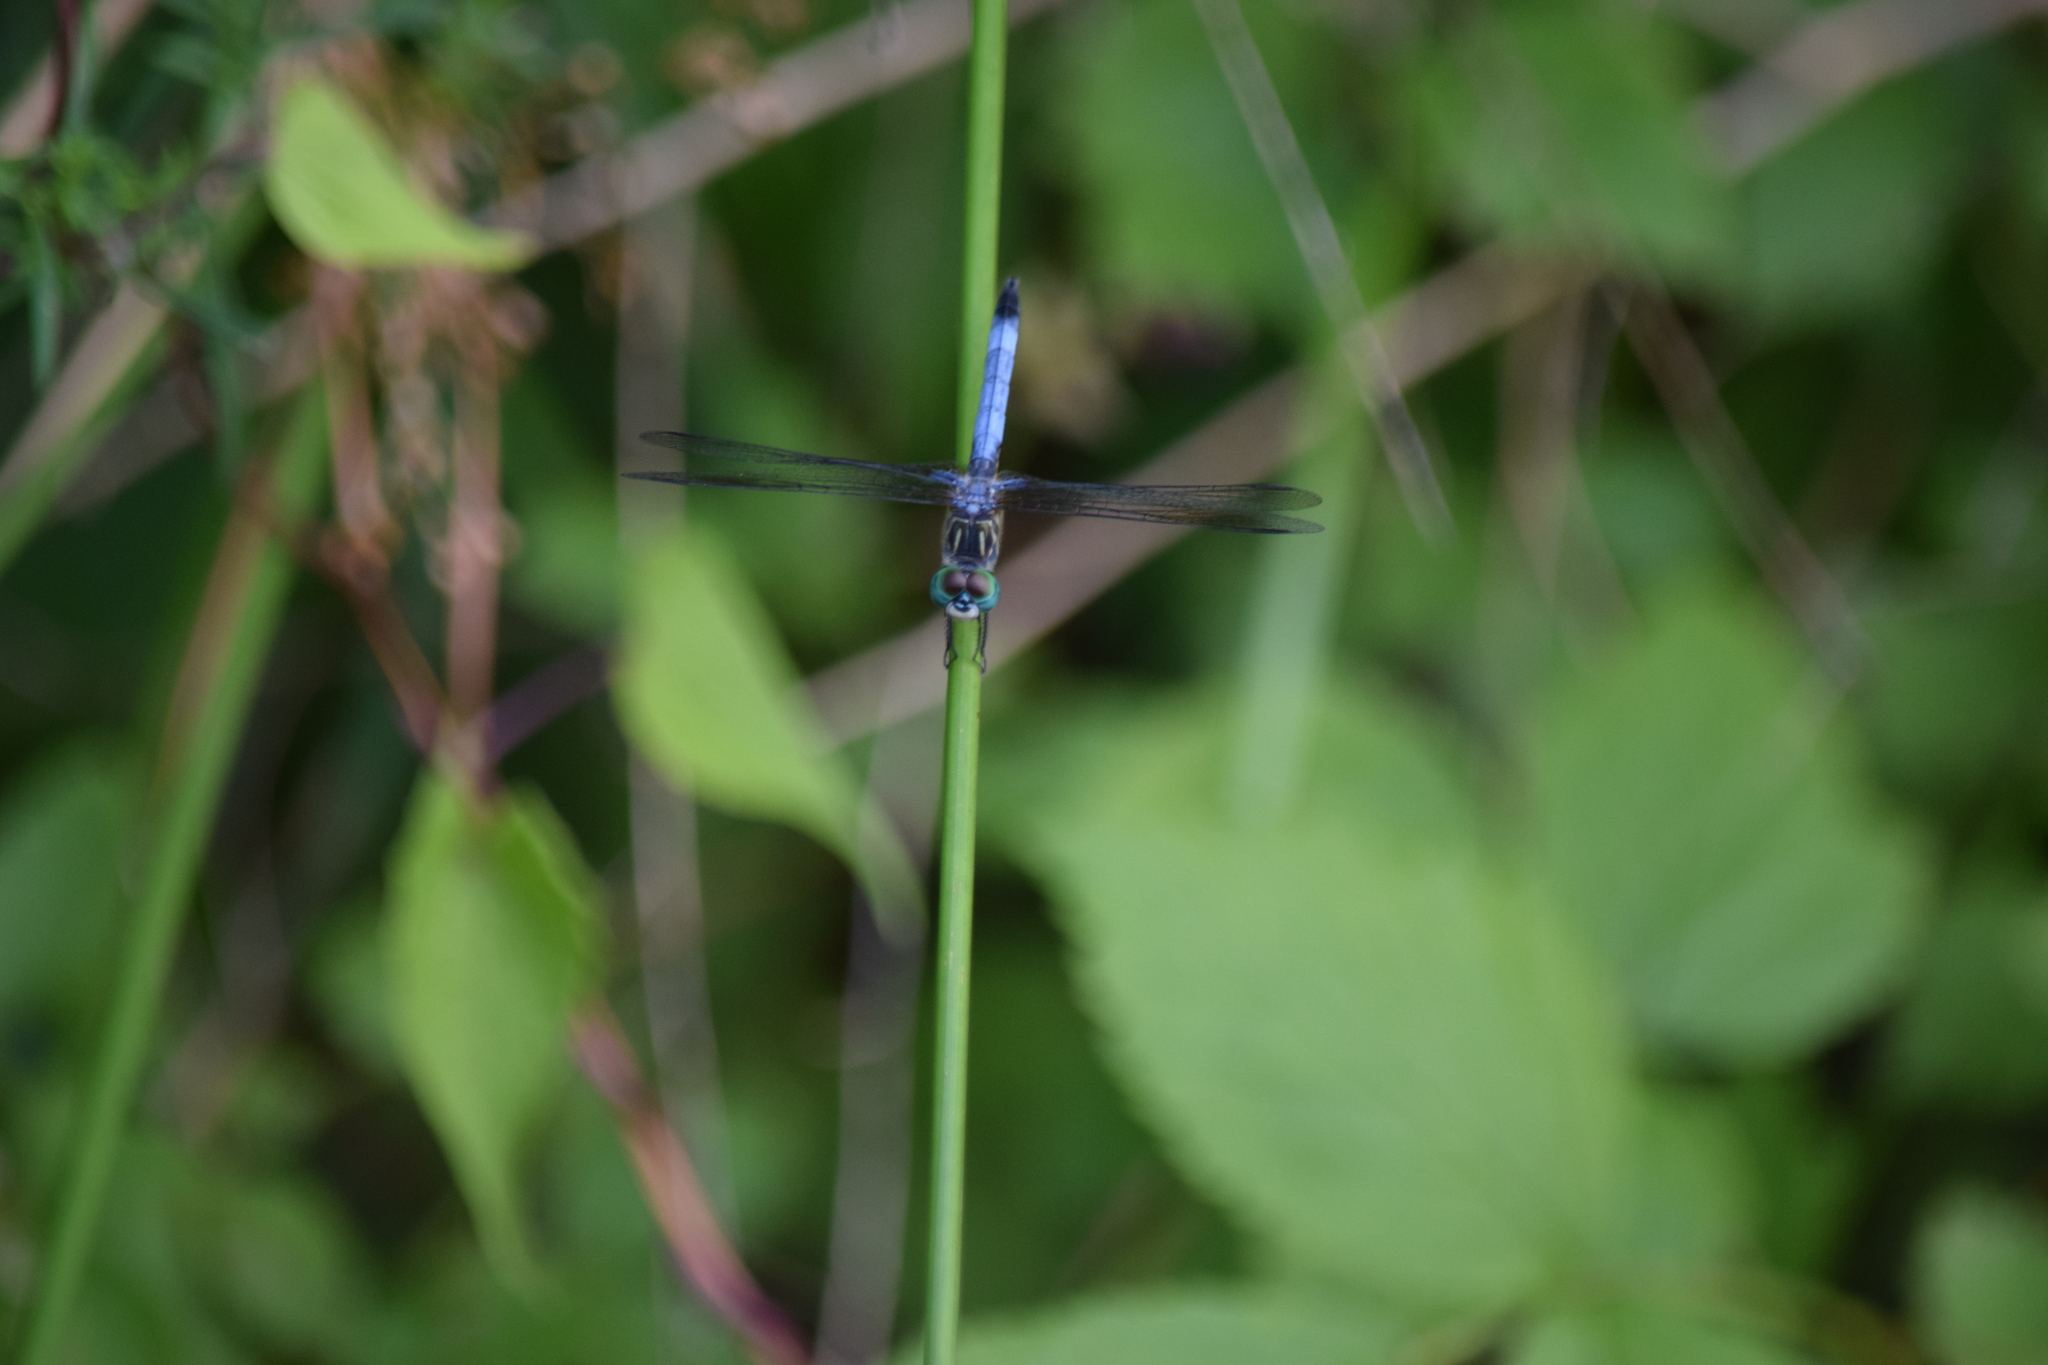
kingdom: Animalia
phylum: Arthropoda
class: Insecta
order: Odonata
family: Libellulidae
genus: Pachydiplax
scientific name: Pachydiplax longipennis
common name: Blue dasher
